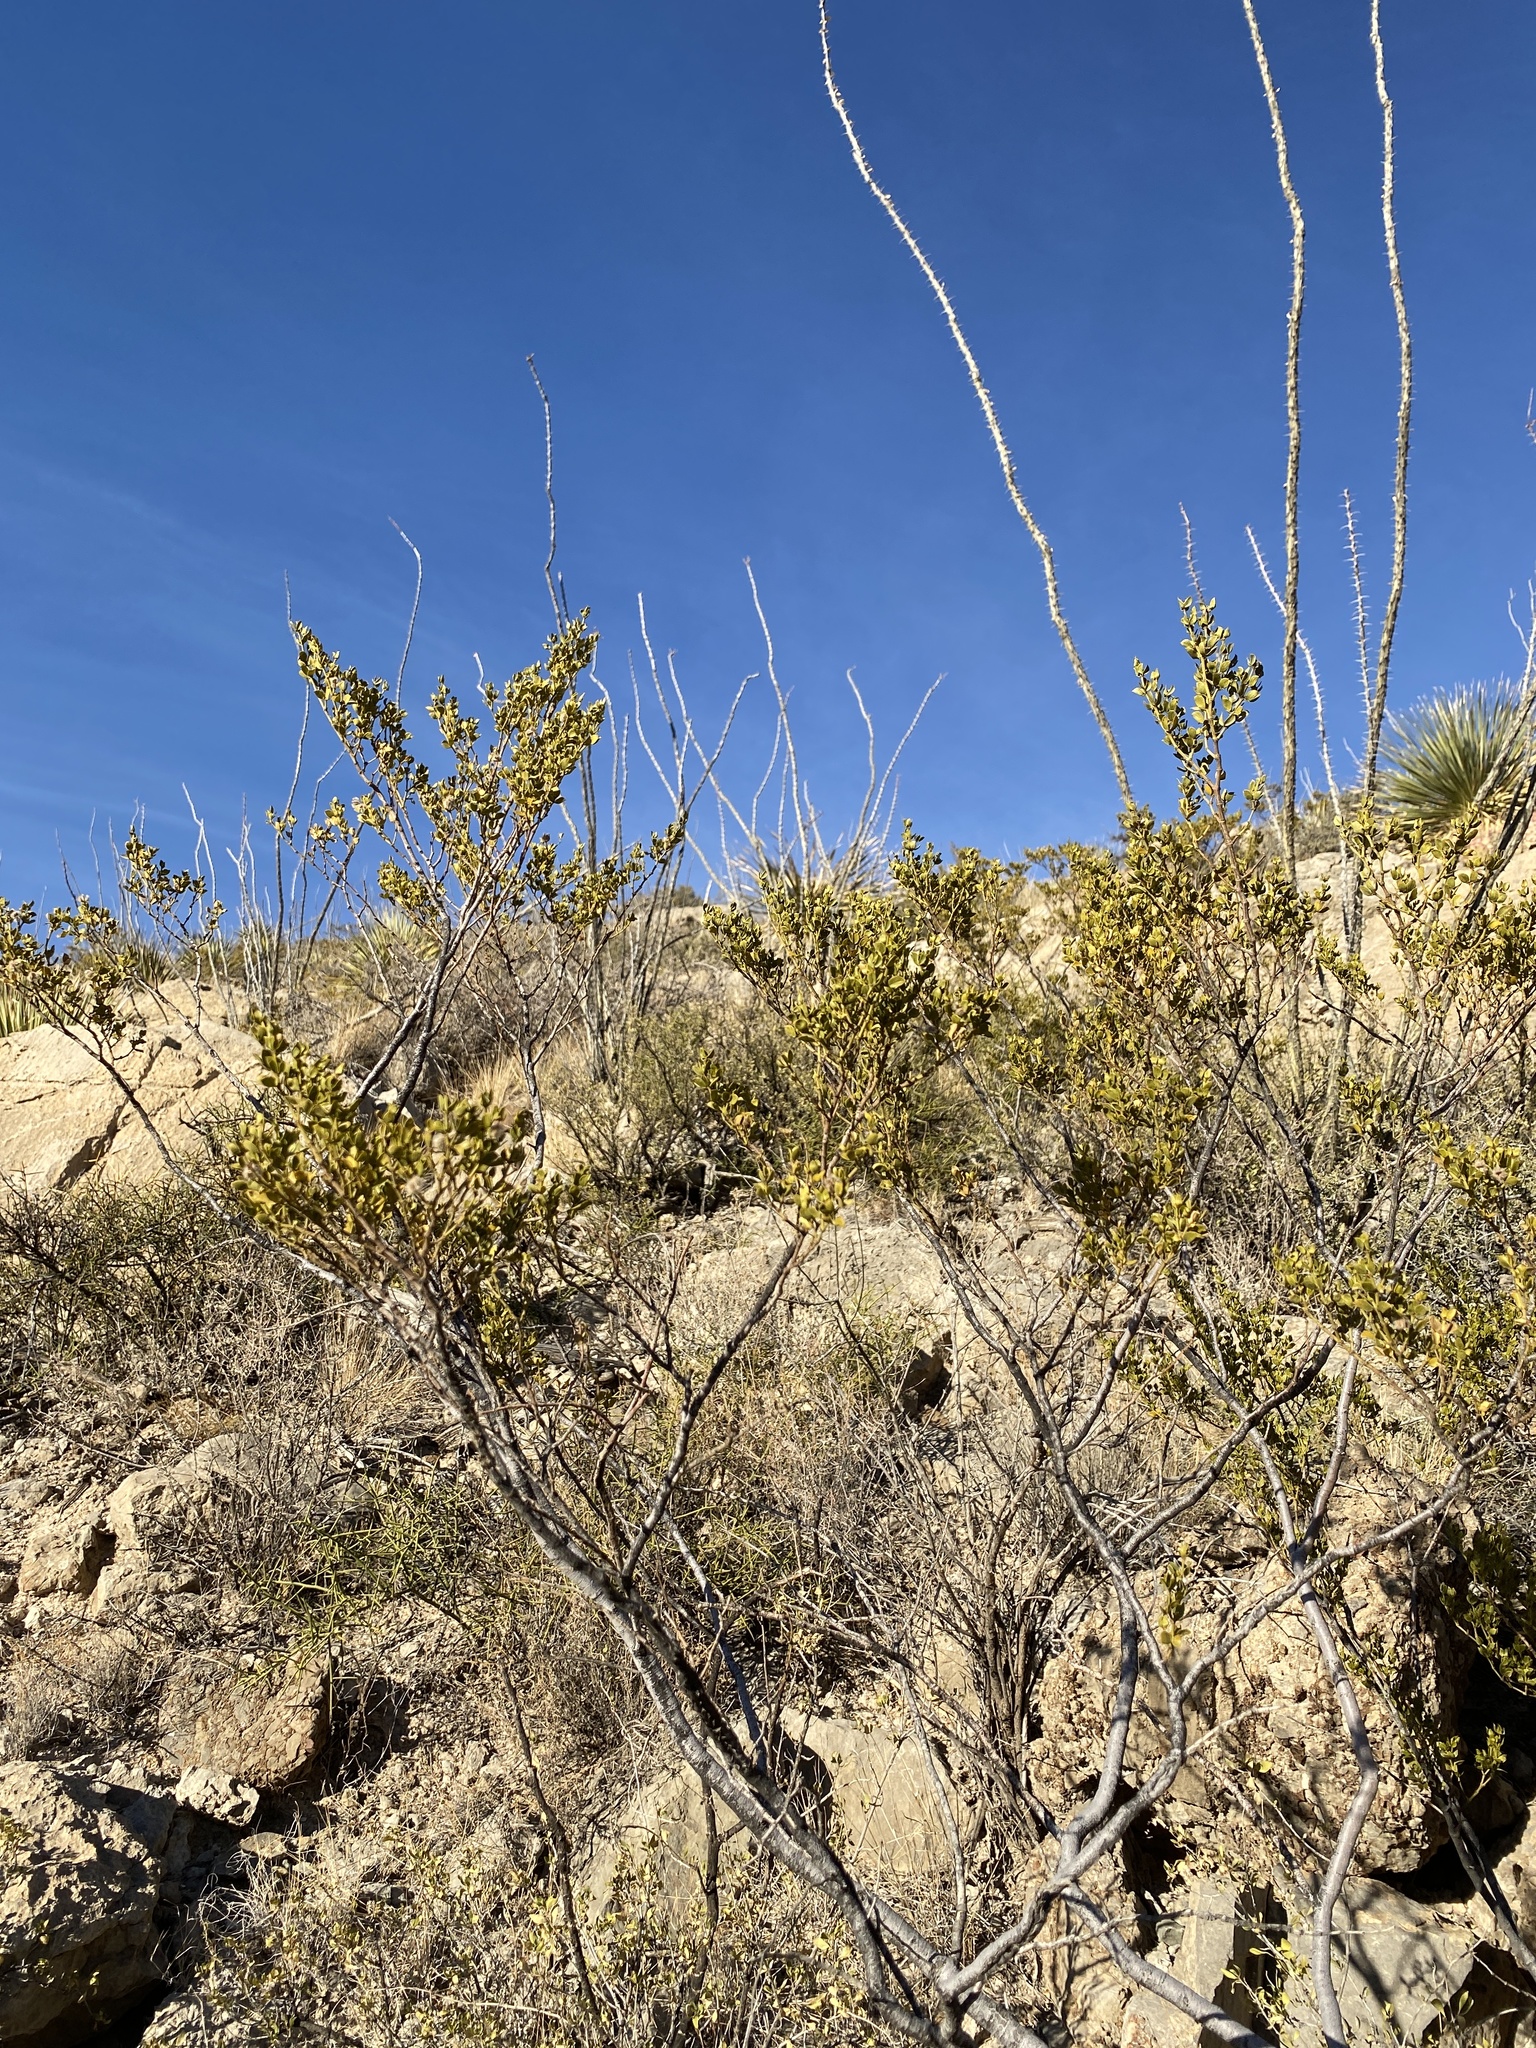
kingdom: Plantae
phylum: Tracheophyta
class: Magnoliopsida
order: Zygophyllales
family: Zygophyllaceae
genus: Larrea
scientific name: Larrea tridentata
